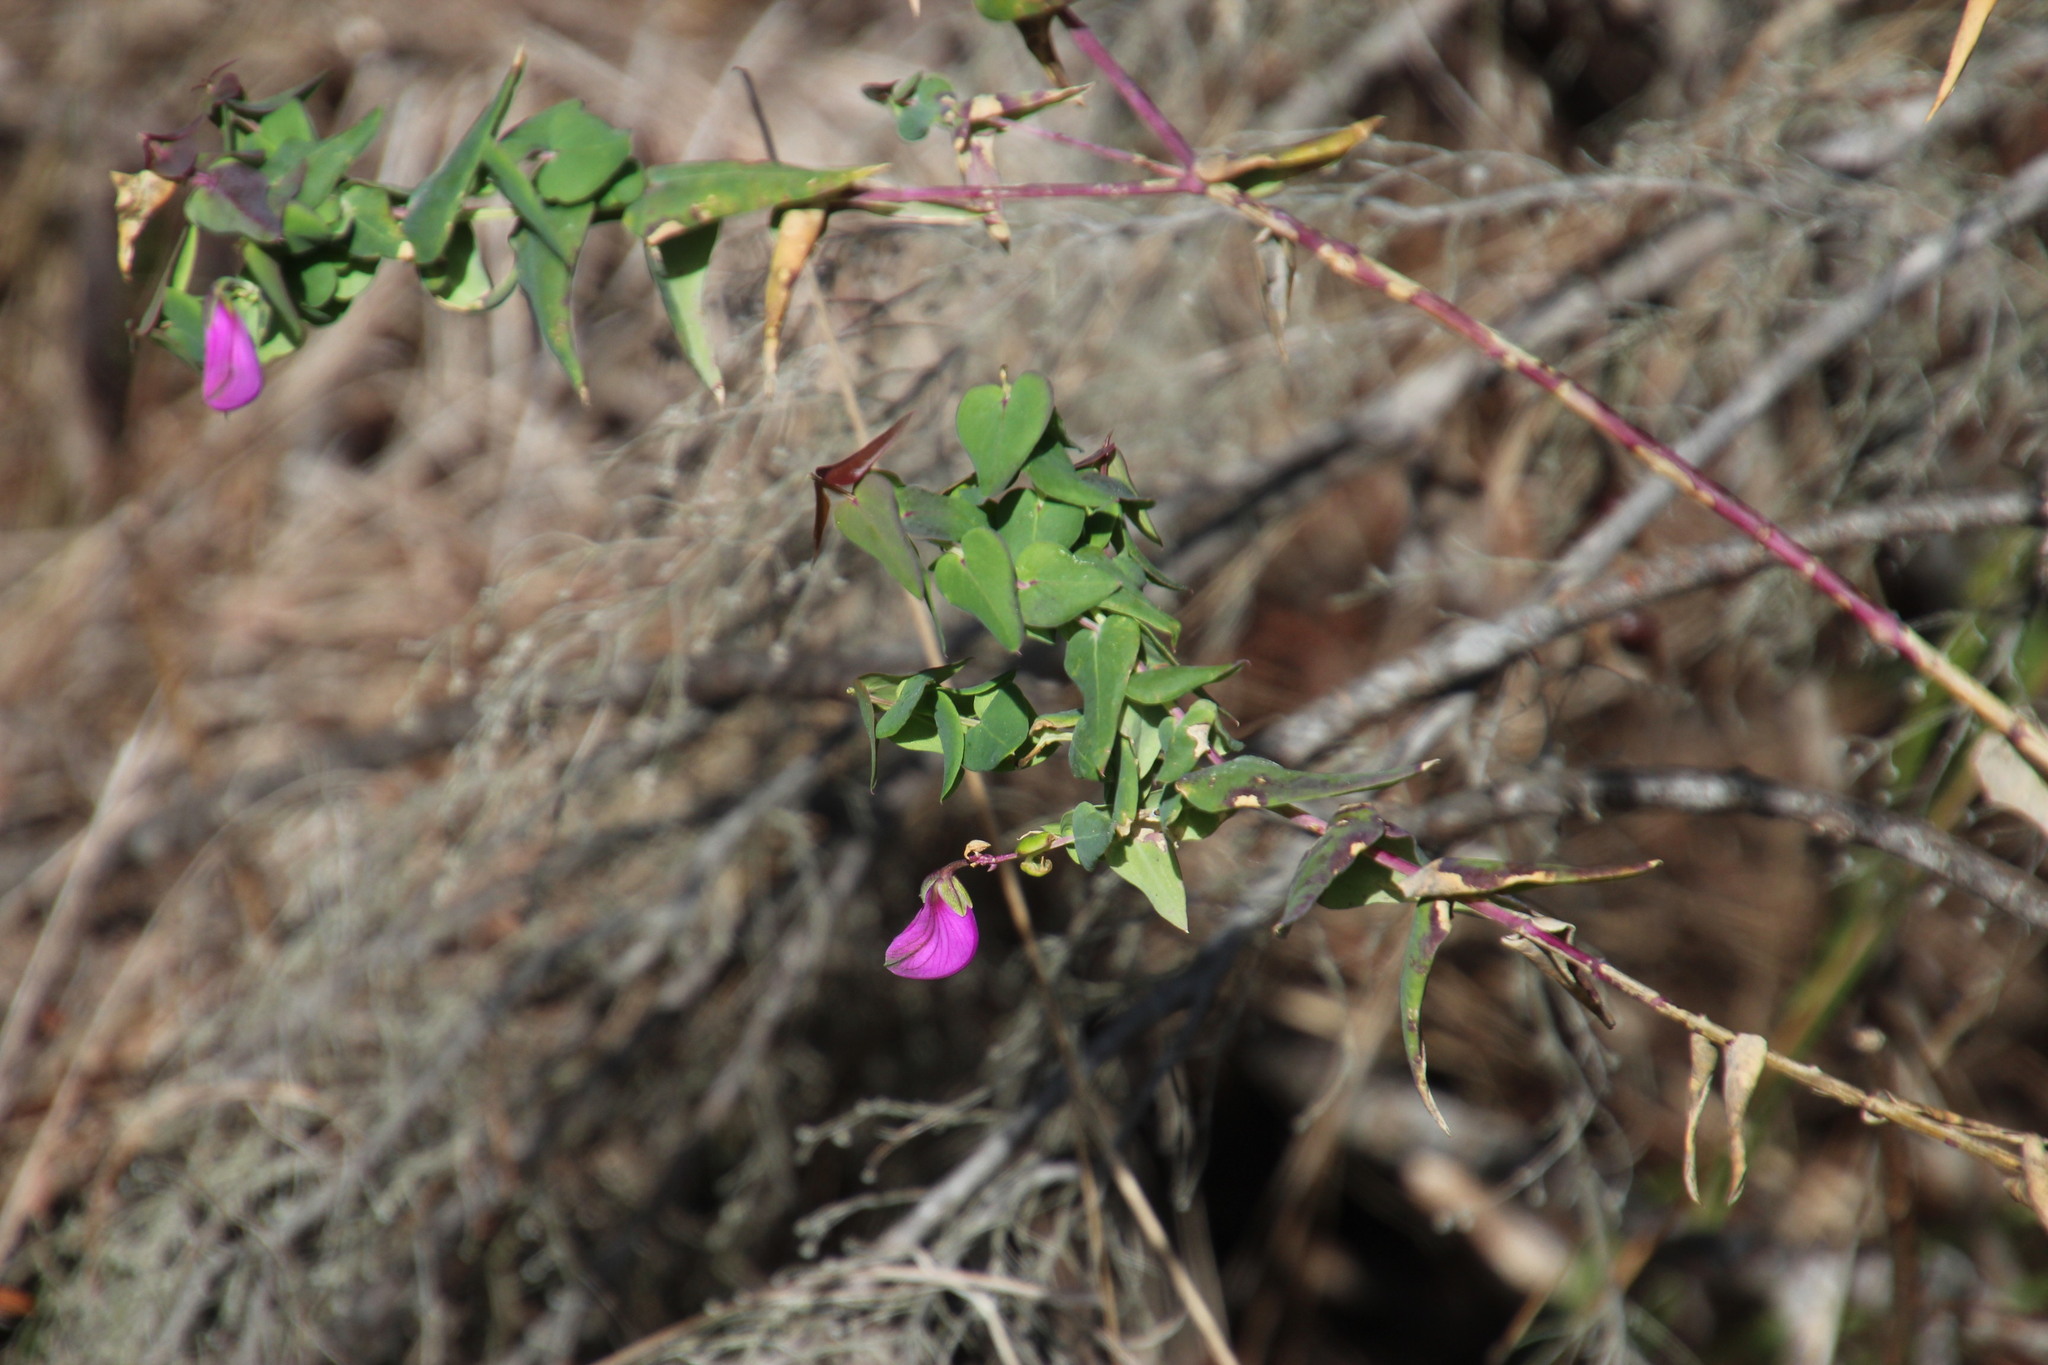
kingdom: Plantae
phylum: Tracheophyta
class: Magnoliopsida
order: Fabales
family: Polygalaceae
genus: Polygala
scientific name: Polygala fruticosa
